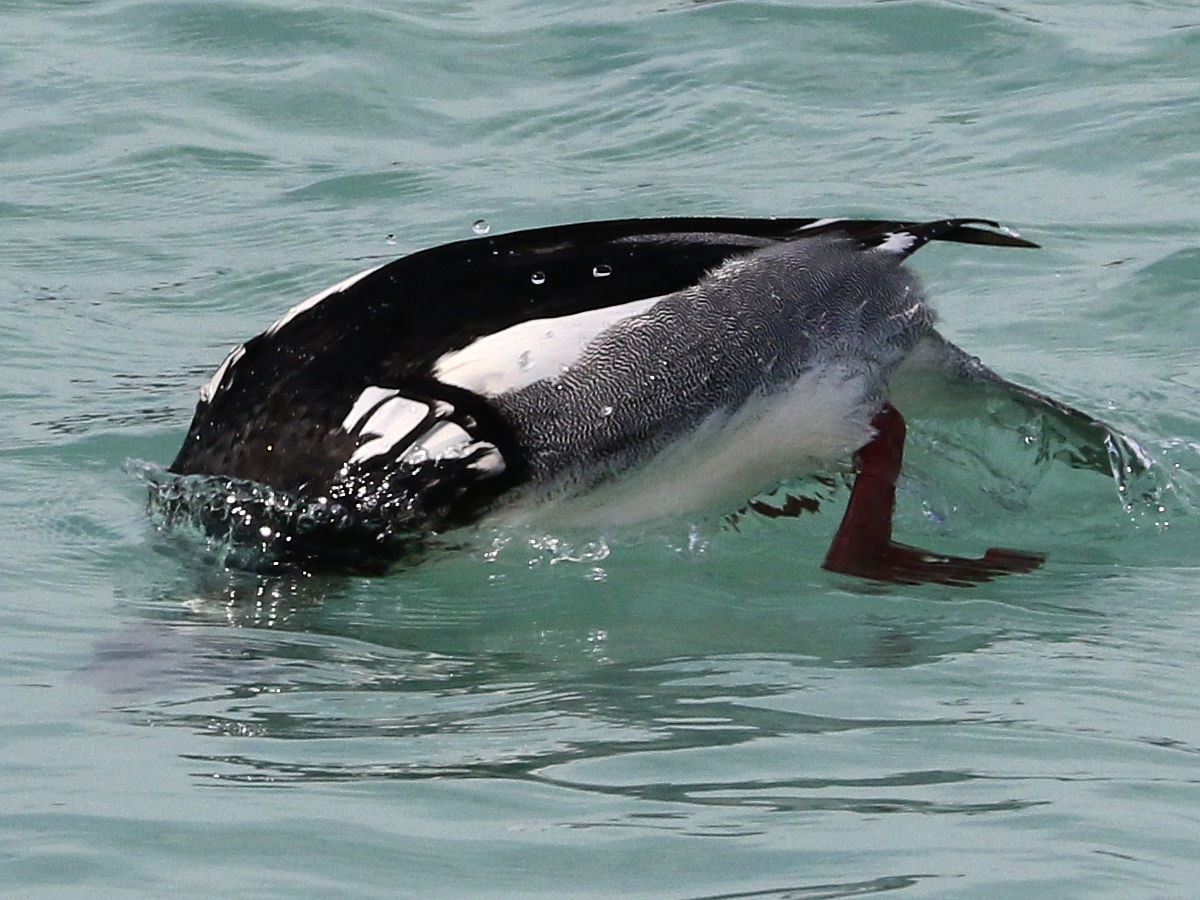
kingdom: Animalia
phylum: Chordata
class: Aves
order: Anseriformes
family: Anatidae
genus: Mergus
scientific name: Mergus serrator
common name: Red-breasted merganser
